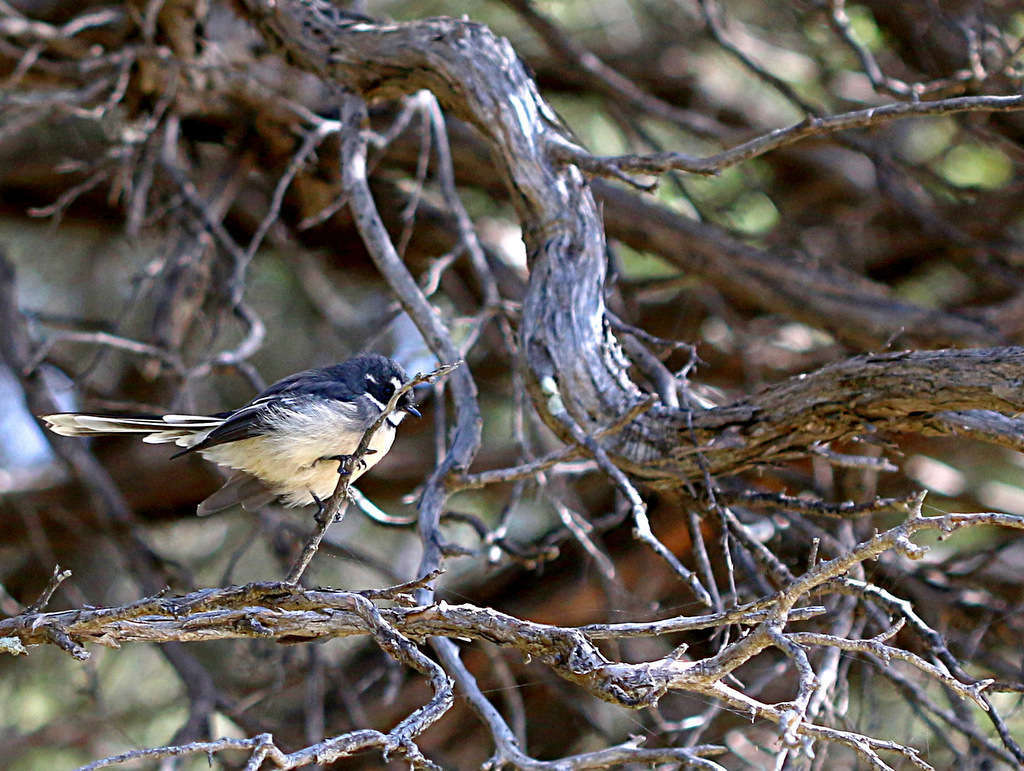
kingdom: Animalia
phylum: Chordata
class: Aves
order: Passeriformes
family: Rhipiduridae
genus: Rhipidura
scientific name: Rhipidura albiscapa
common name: Grey fantail
